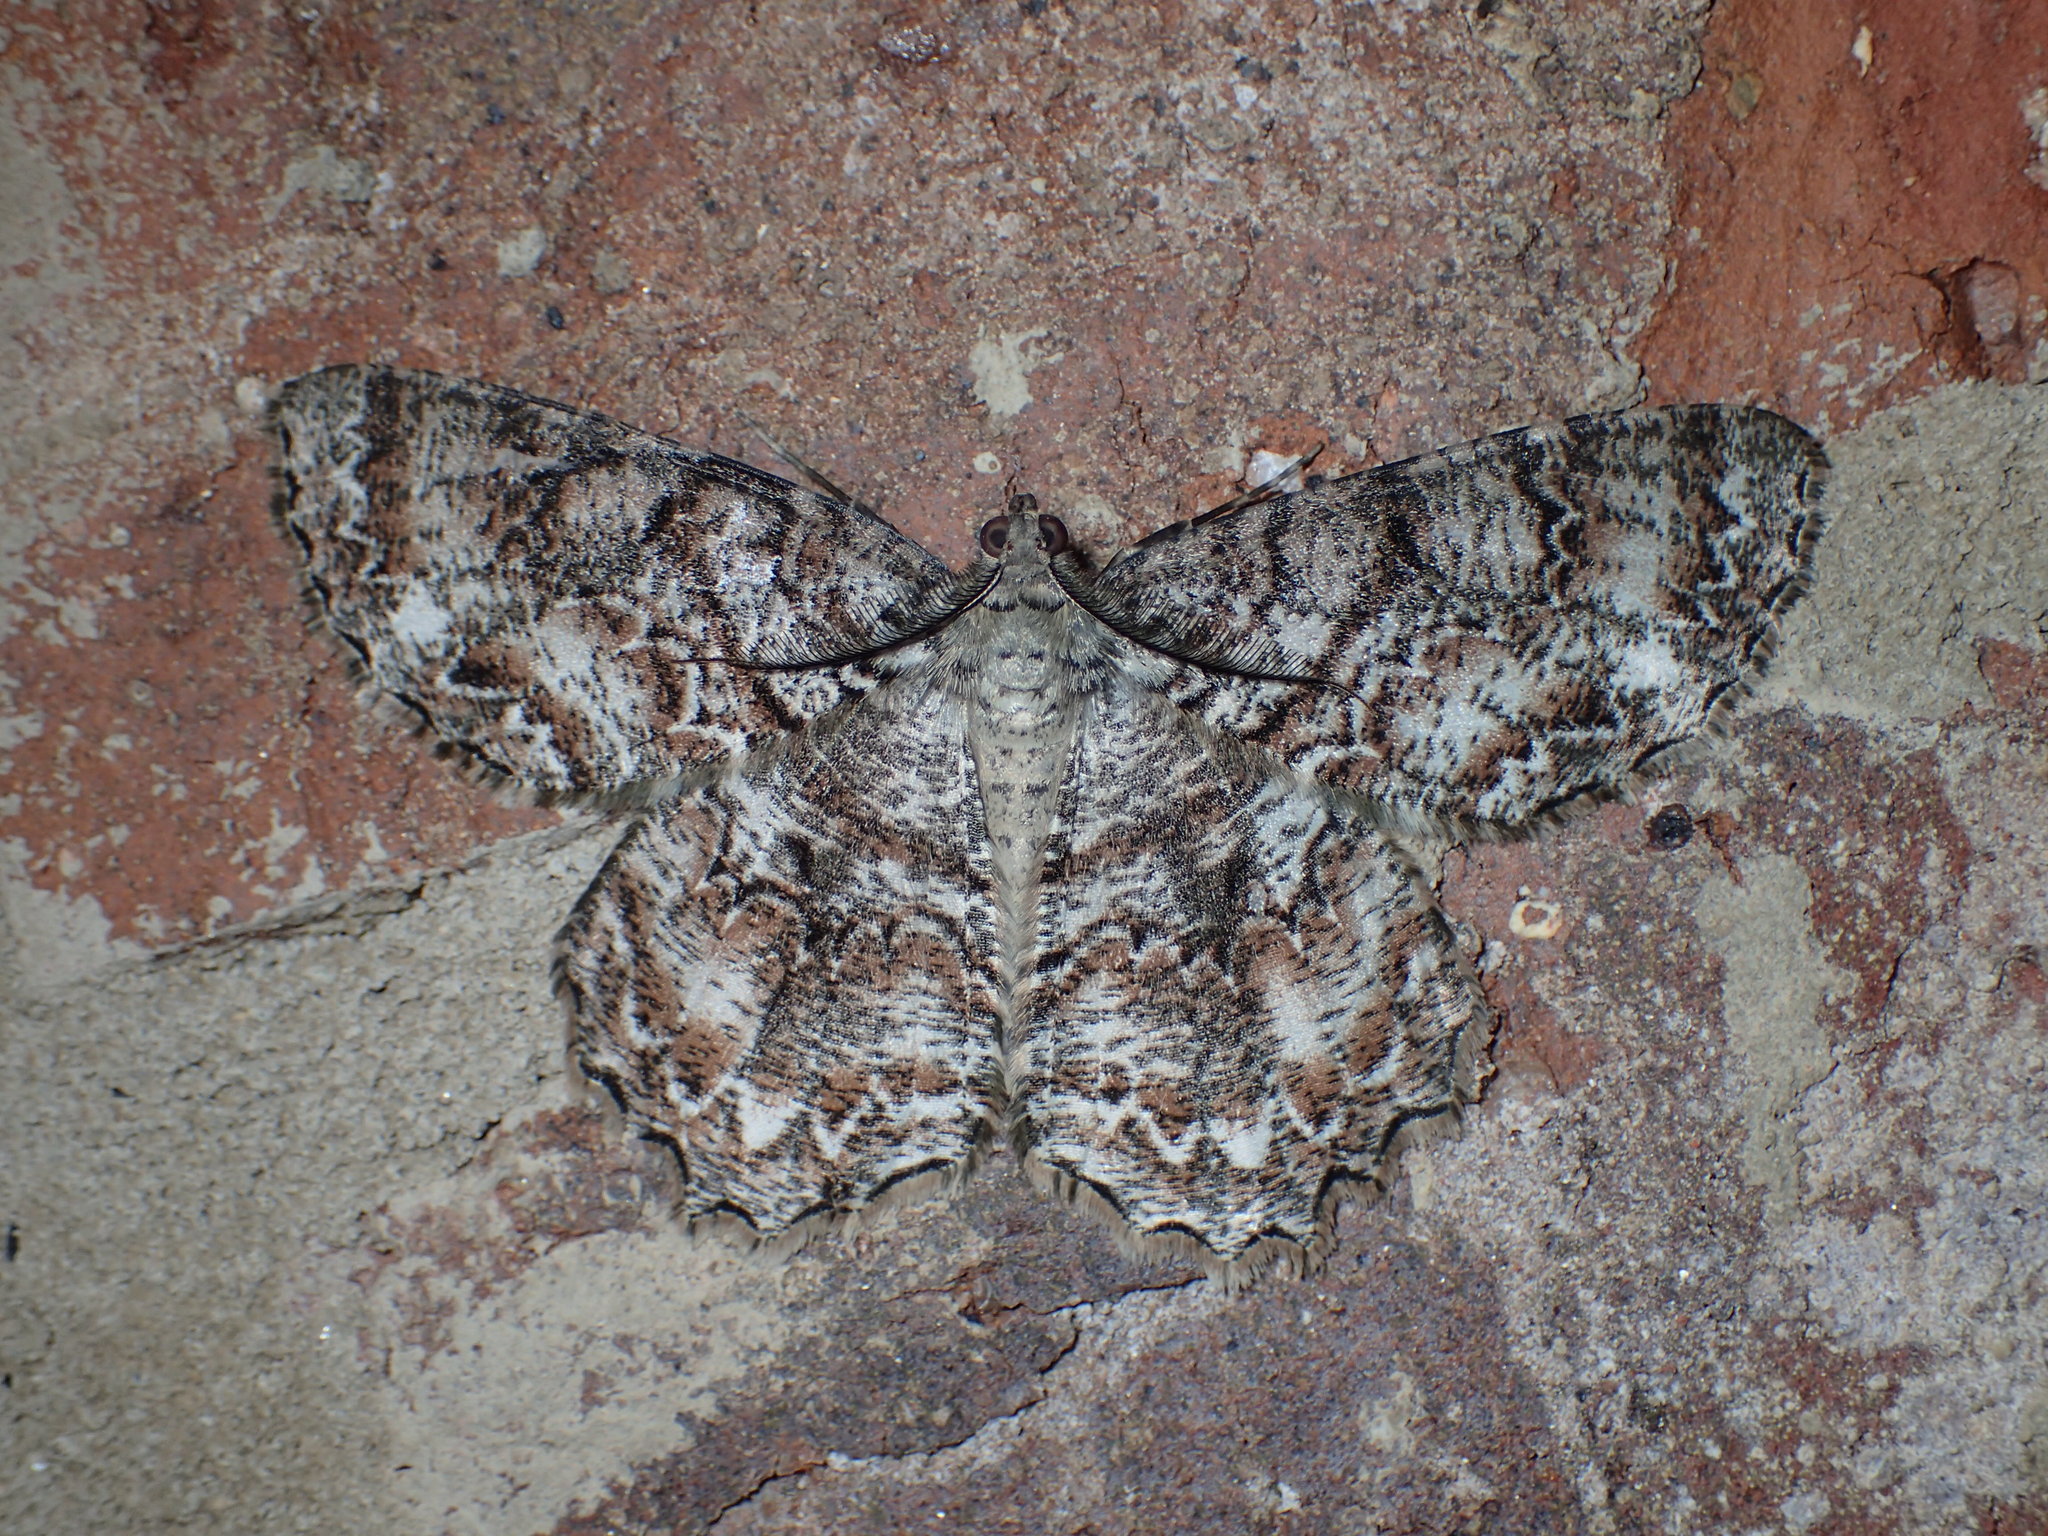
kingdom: Animalia
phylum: Arthropoda
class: Insecta
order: Lepidoptera
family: Geometridae
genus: Epimecis
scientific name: Epimecis hortaria
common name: Tulip-tree beauty
